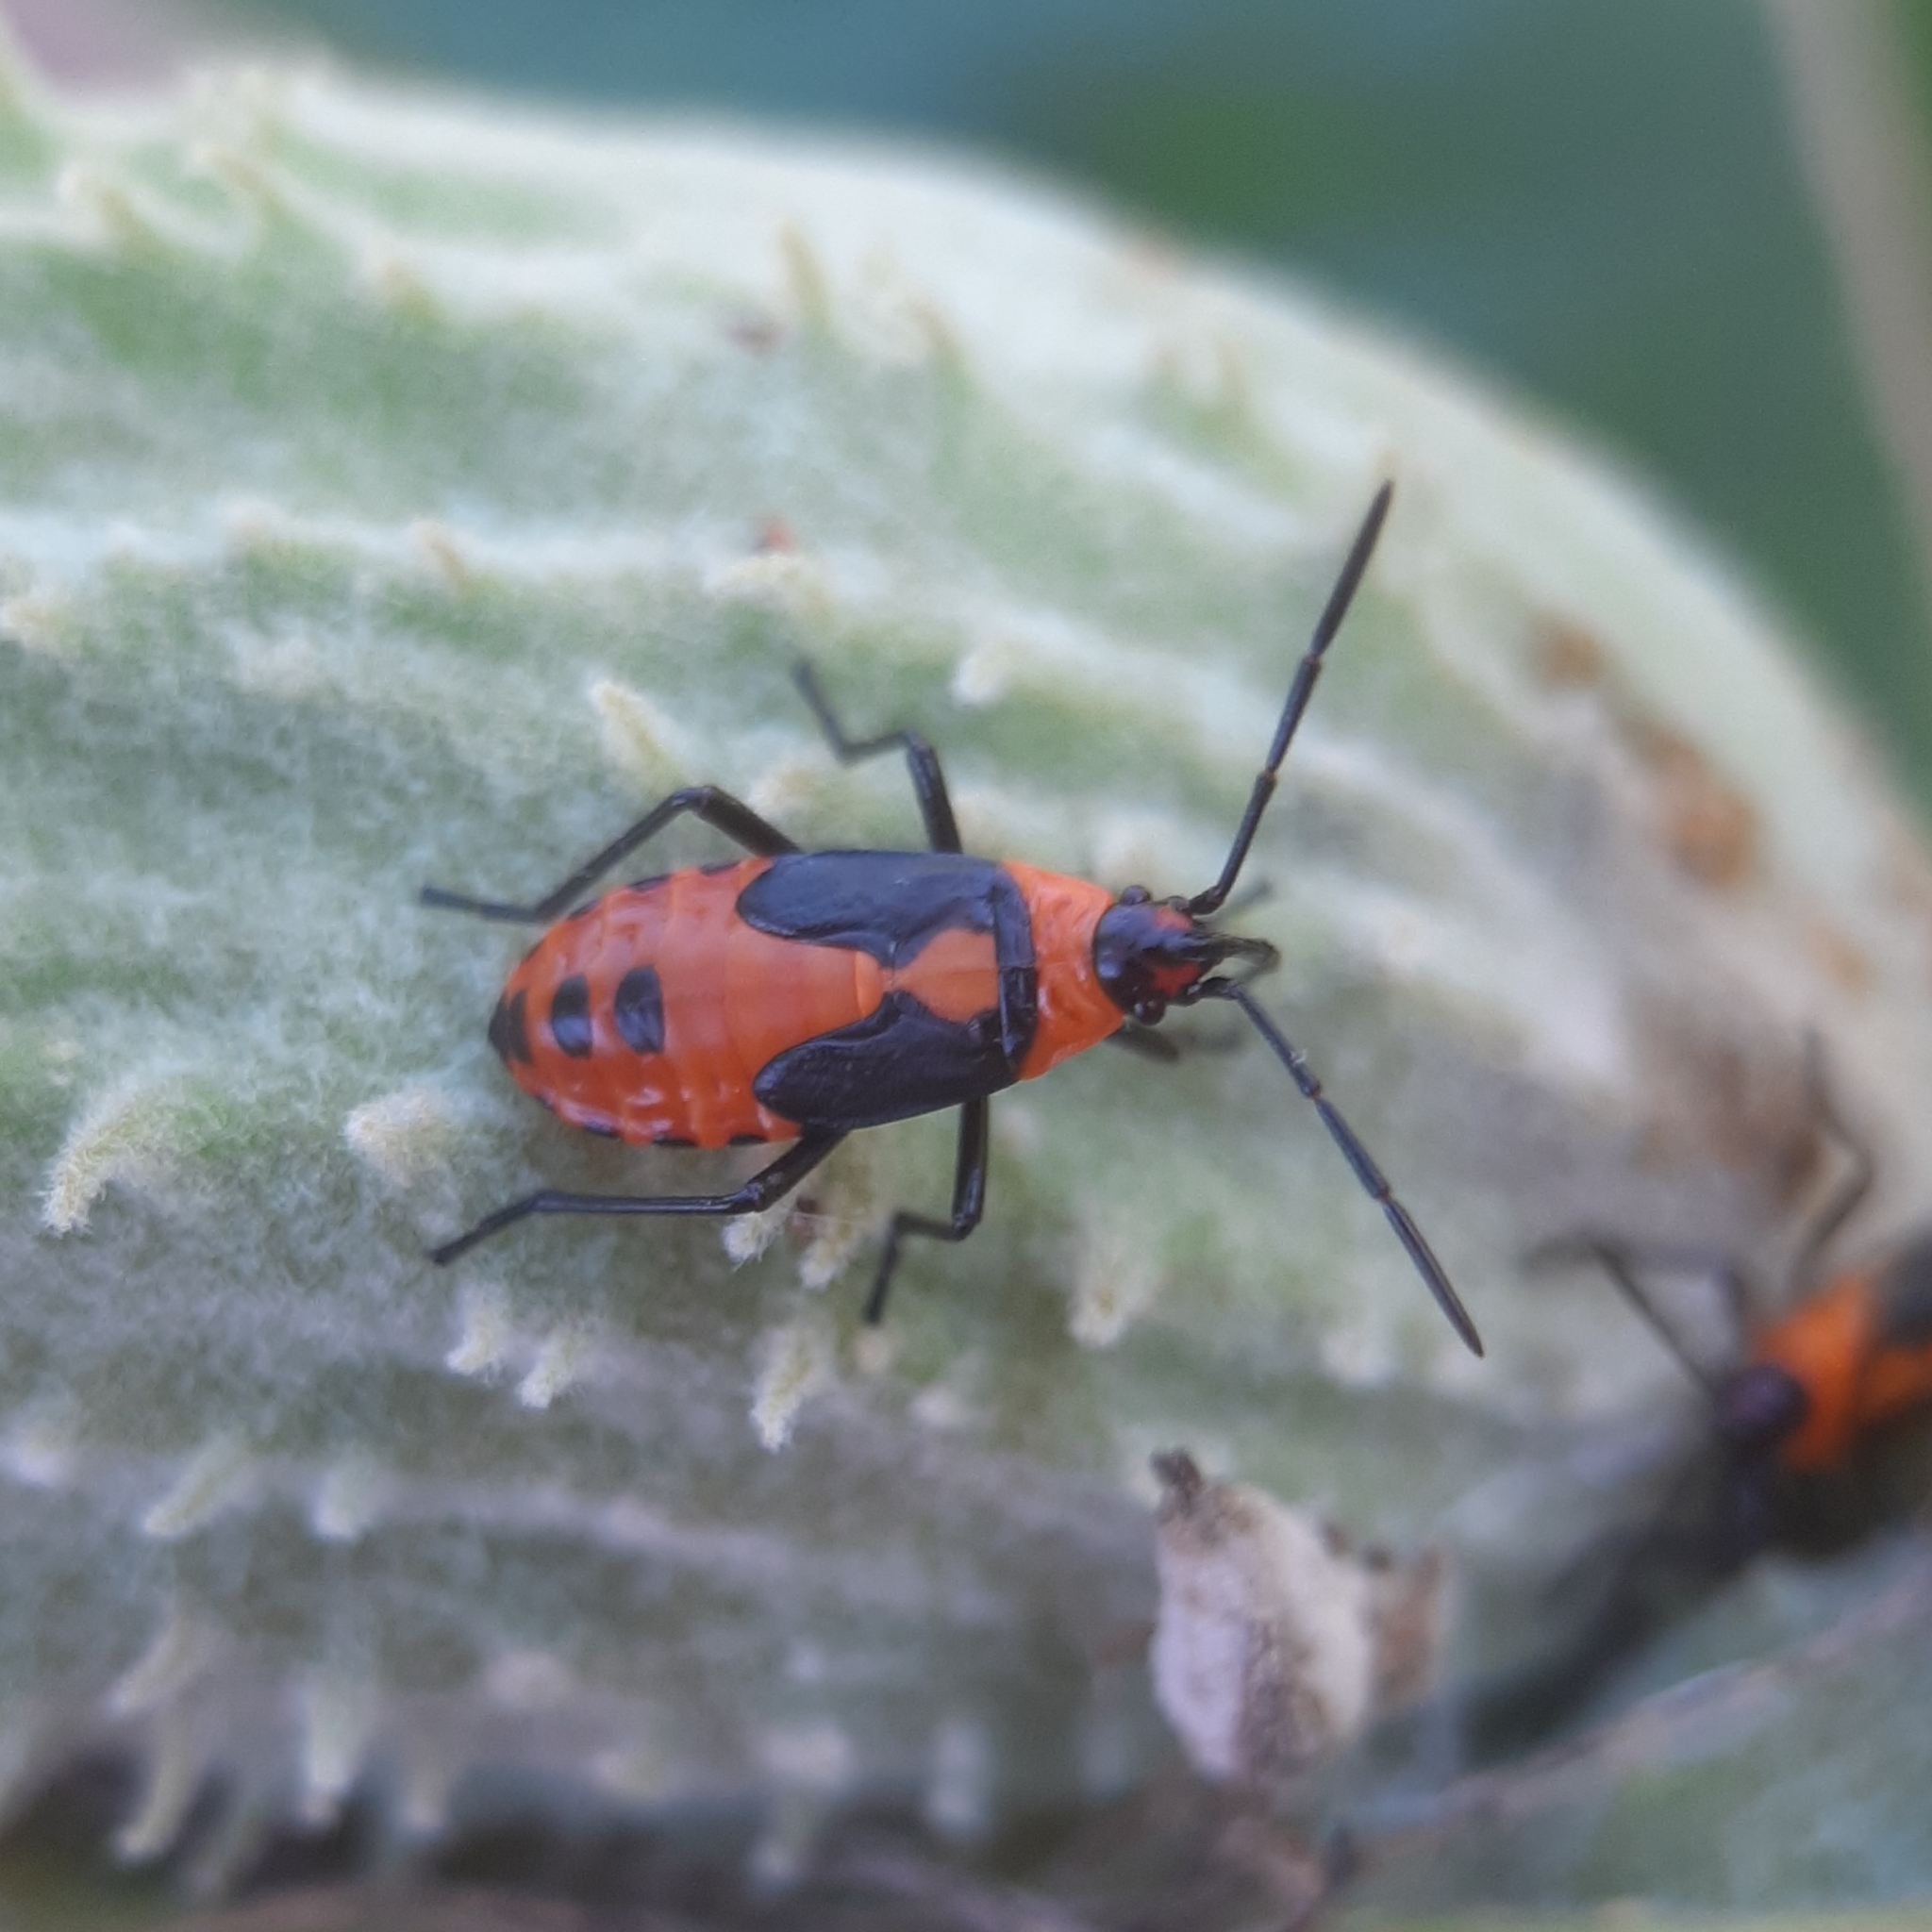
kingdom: Animalia
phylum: Arthropoda
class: Insecta
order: Hemiptera
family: Lygaeidae
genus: Oncopeltus
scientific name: Oncopeltus fasciatus
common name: Large milkweed bug
